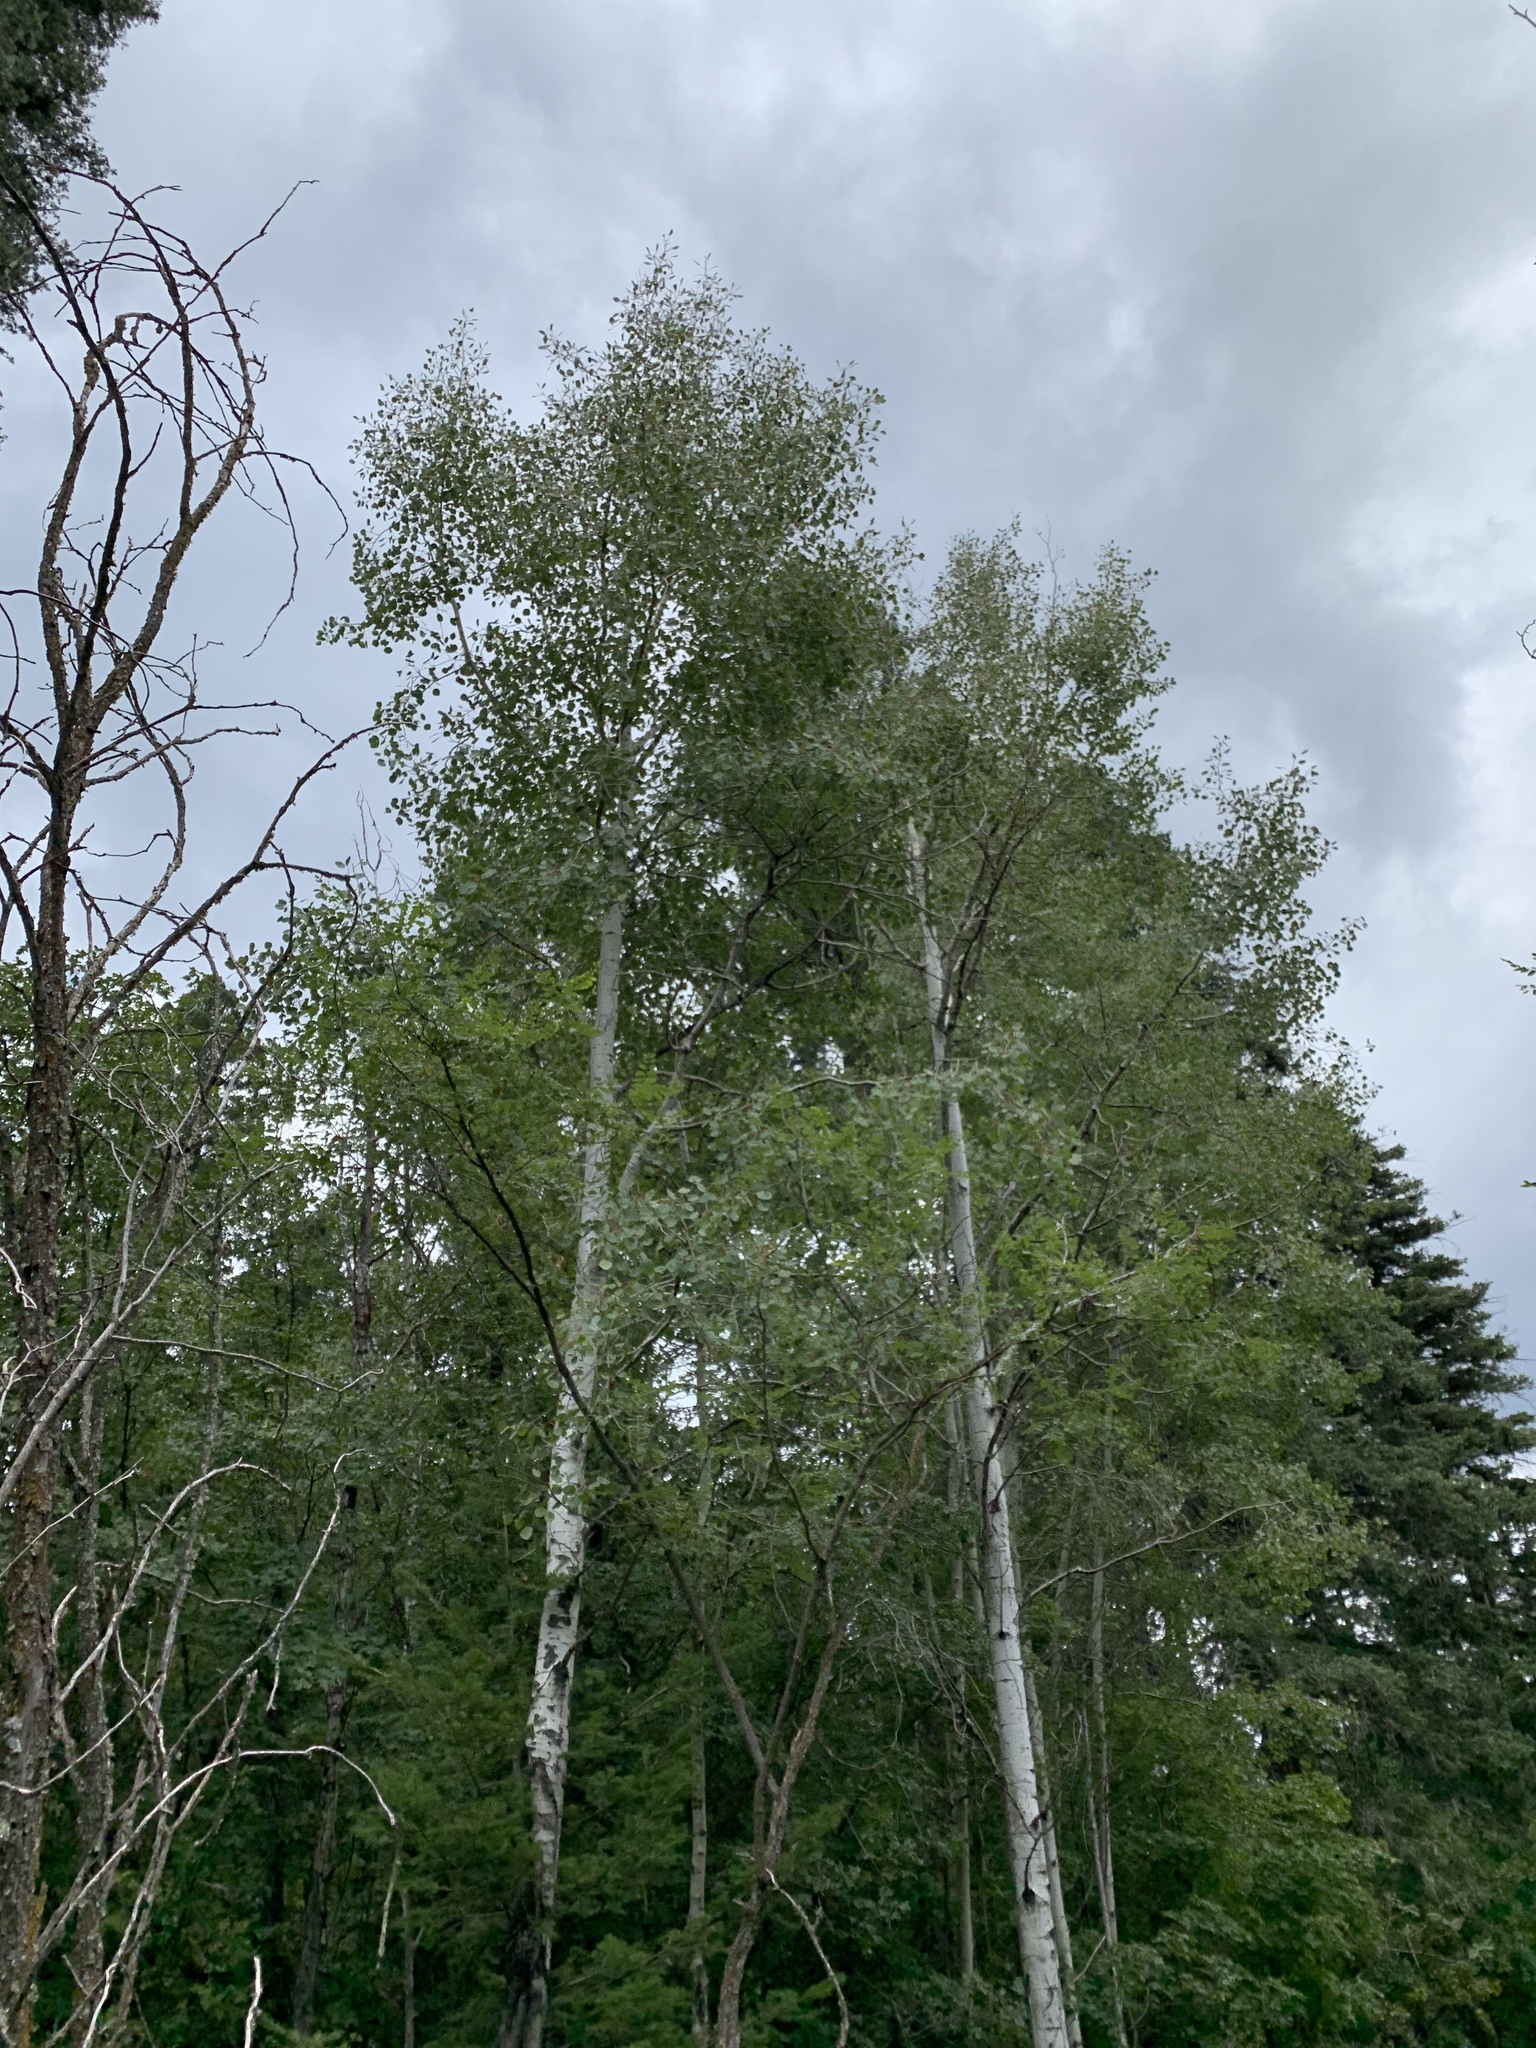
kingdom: Plantae
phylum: Tracheophyta
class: Magnoliopsida
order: Malpighiales
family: Salicaceae
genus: Populus
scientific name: Populus tremuloides
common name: Quaking aspen
